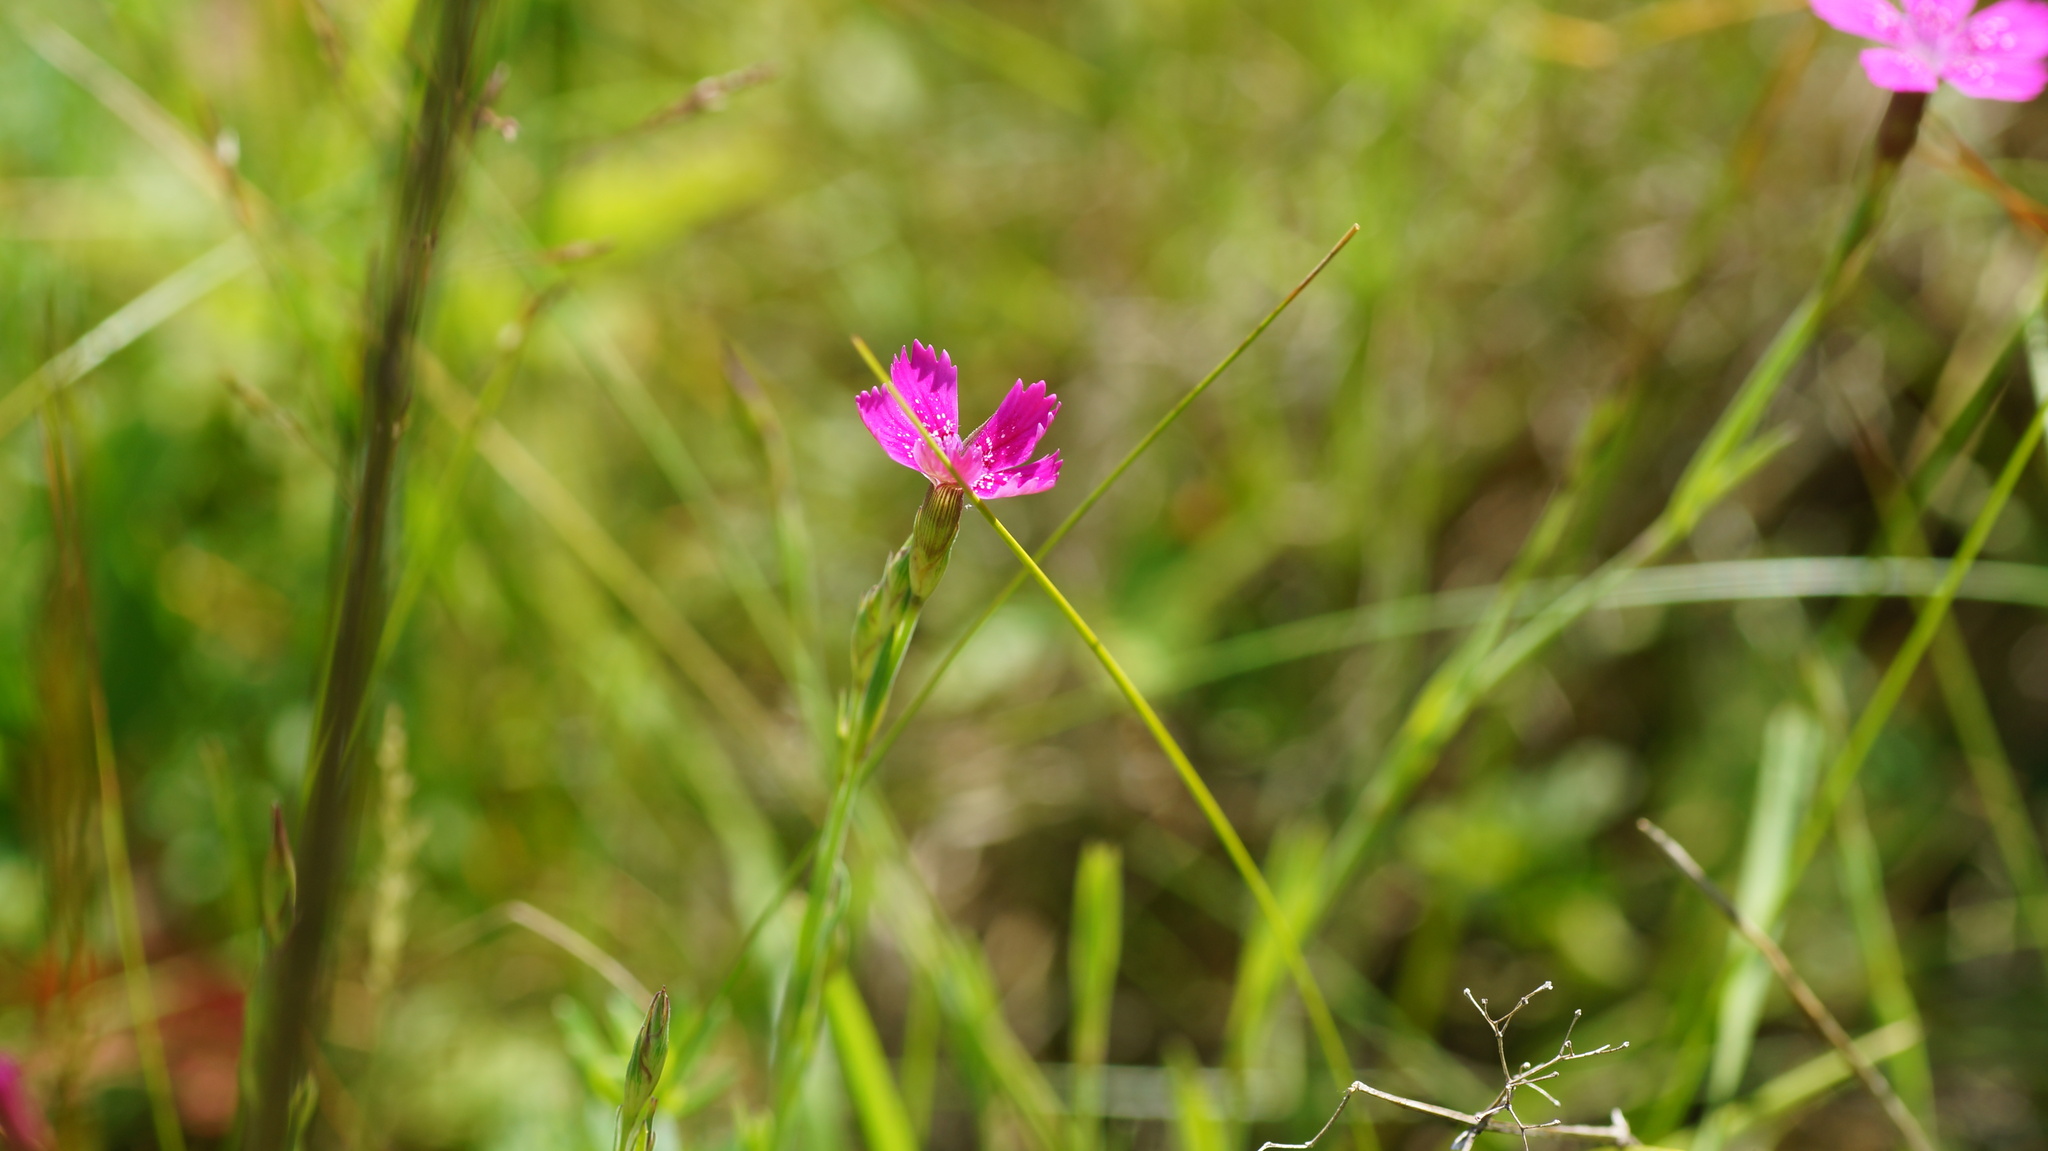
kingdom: Plantae
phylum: Tracheophyta
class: Magnoliopsida
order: Caryophyllales
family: Caryophyllaceae
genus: Dianthus
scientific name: Dianthus deltoides
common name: Maiden pink
